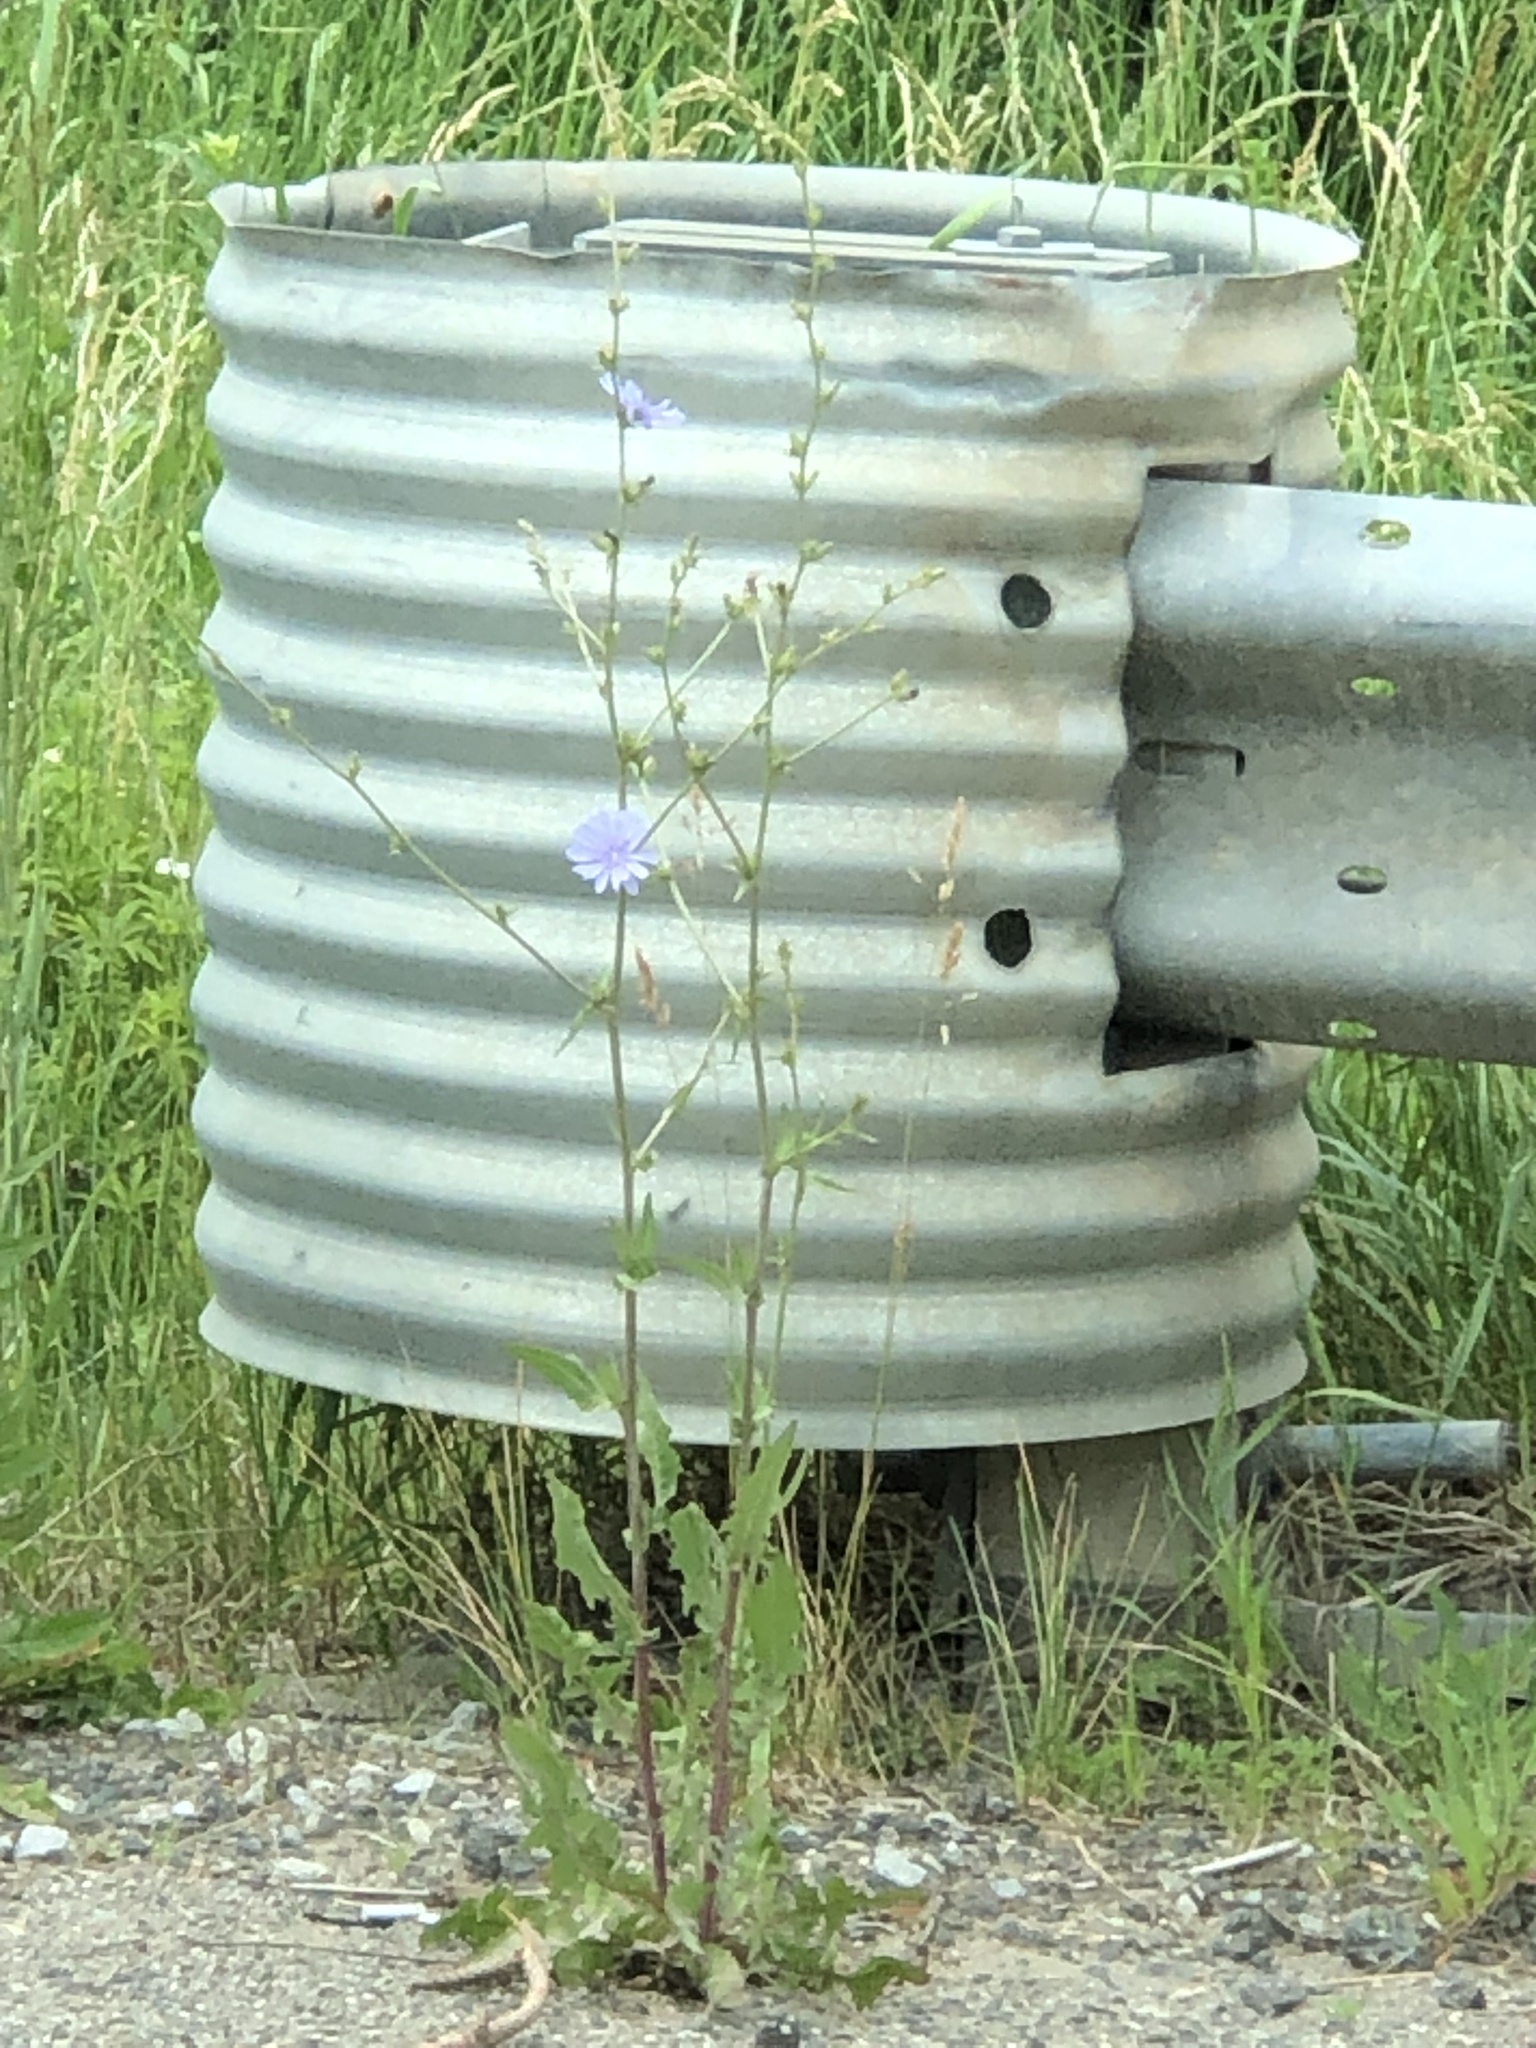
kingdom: Plantae
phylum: Tracheophyta
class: Magnoliopsida
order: Asterales
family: Asteraceae
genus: Cichorium
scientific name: Cichorium intybus
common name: Chicory
